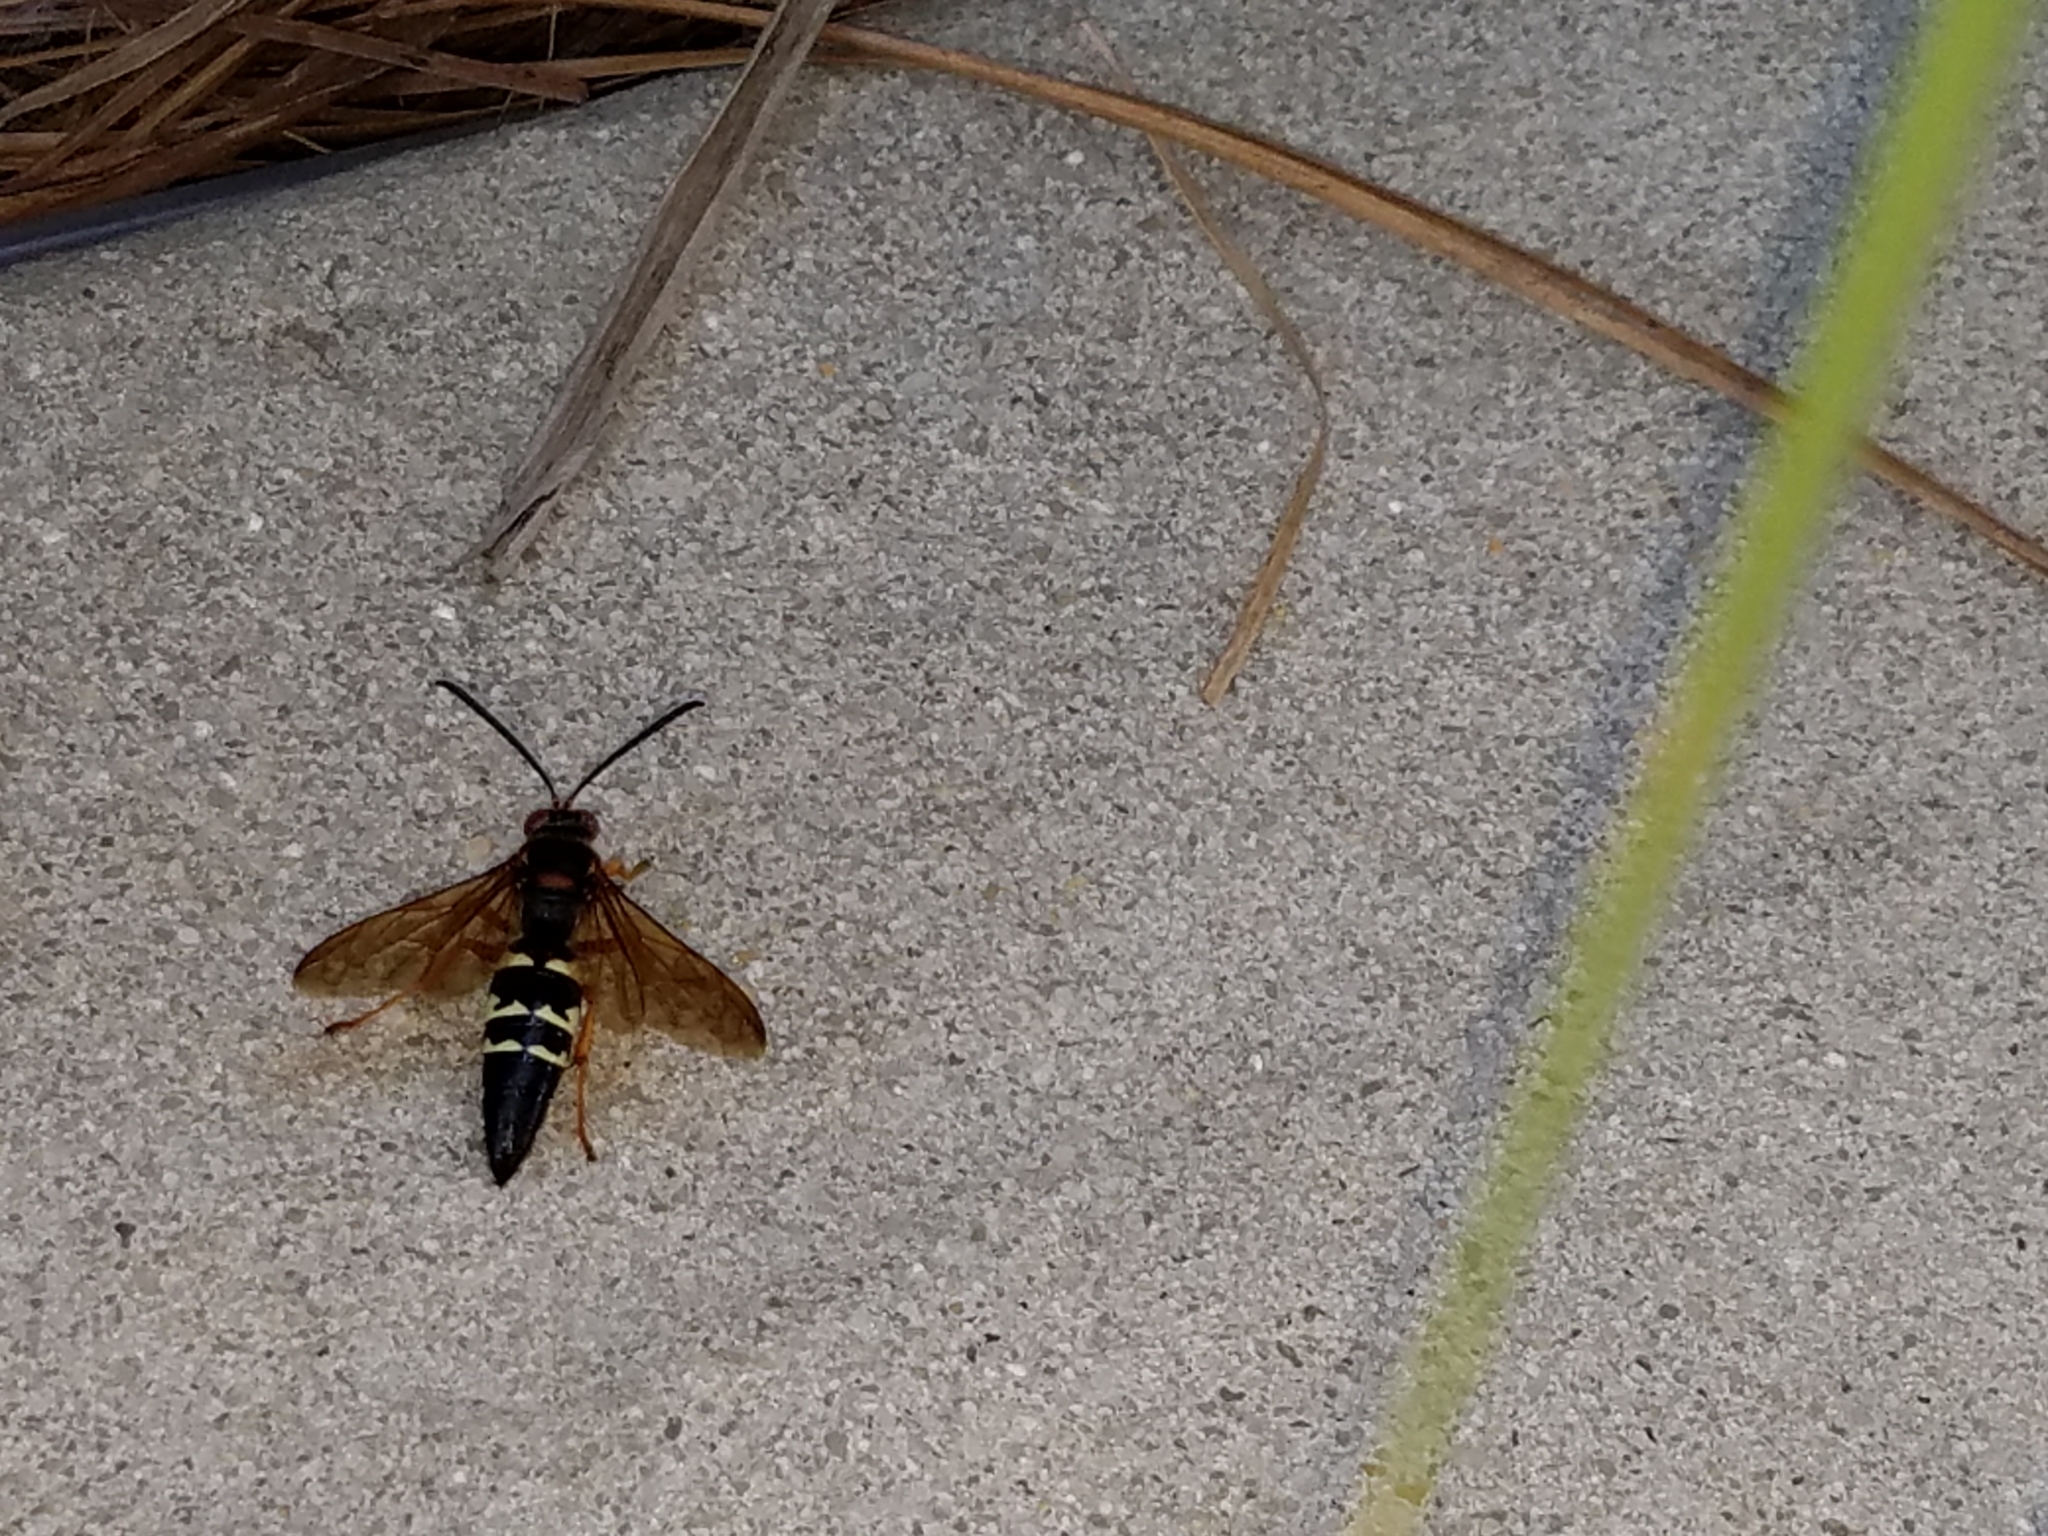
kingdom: Animalia
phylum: Arthropoda
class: Insecta
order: Hymenoptera
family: Crabronidae
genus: Sphecius
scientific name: Sphecius speciosus
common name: Cicada killer
